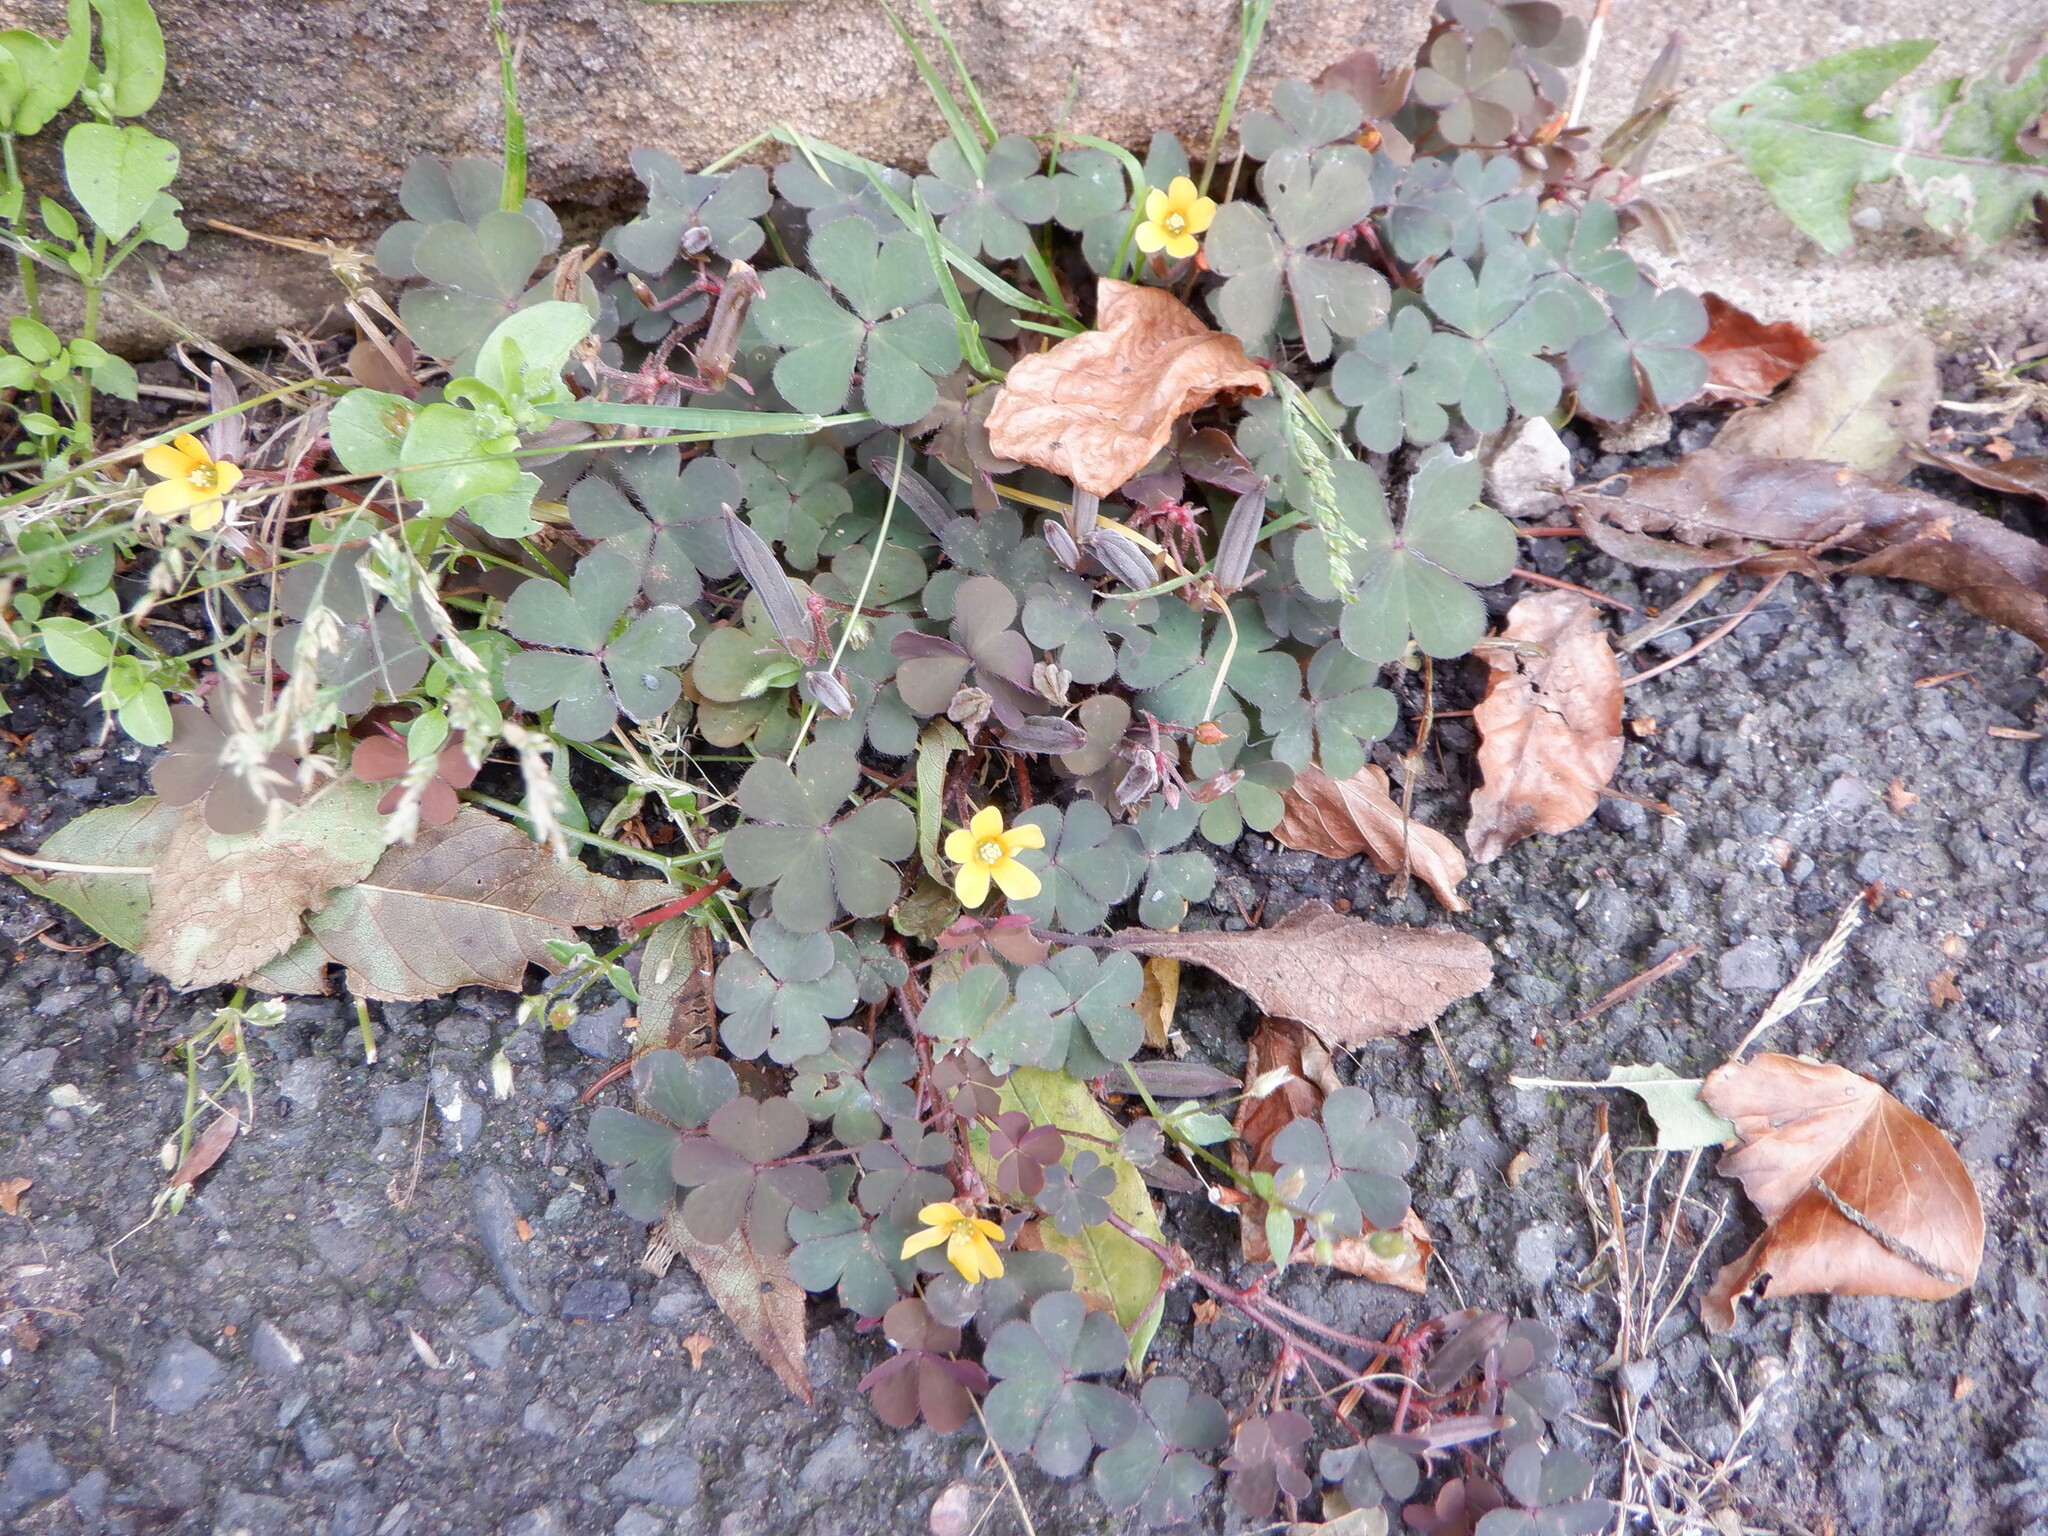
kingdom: Plantae
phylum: Tracheophyta
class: Magnoliopsida
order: Oxalidales
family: Oxalidaceae
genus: Oxalis
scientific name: Oxalis corniculata
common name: Procumbent yellow-sorrel
